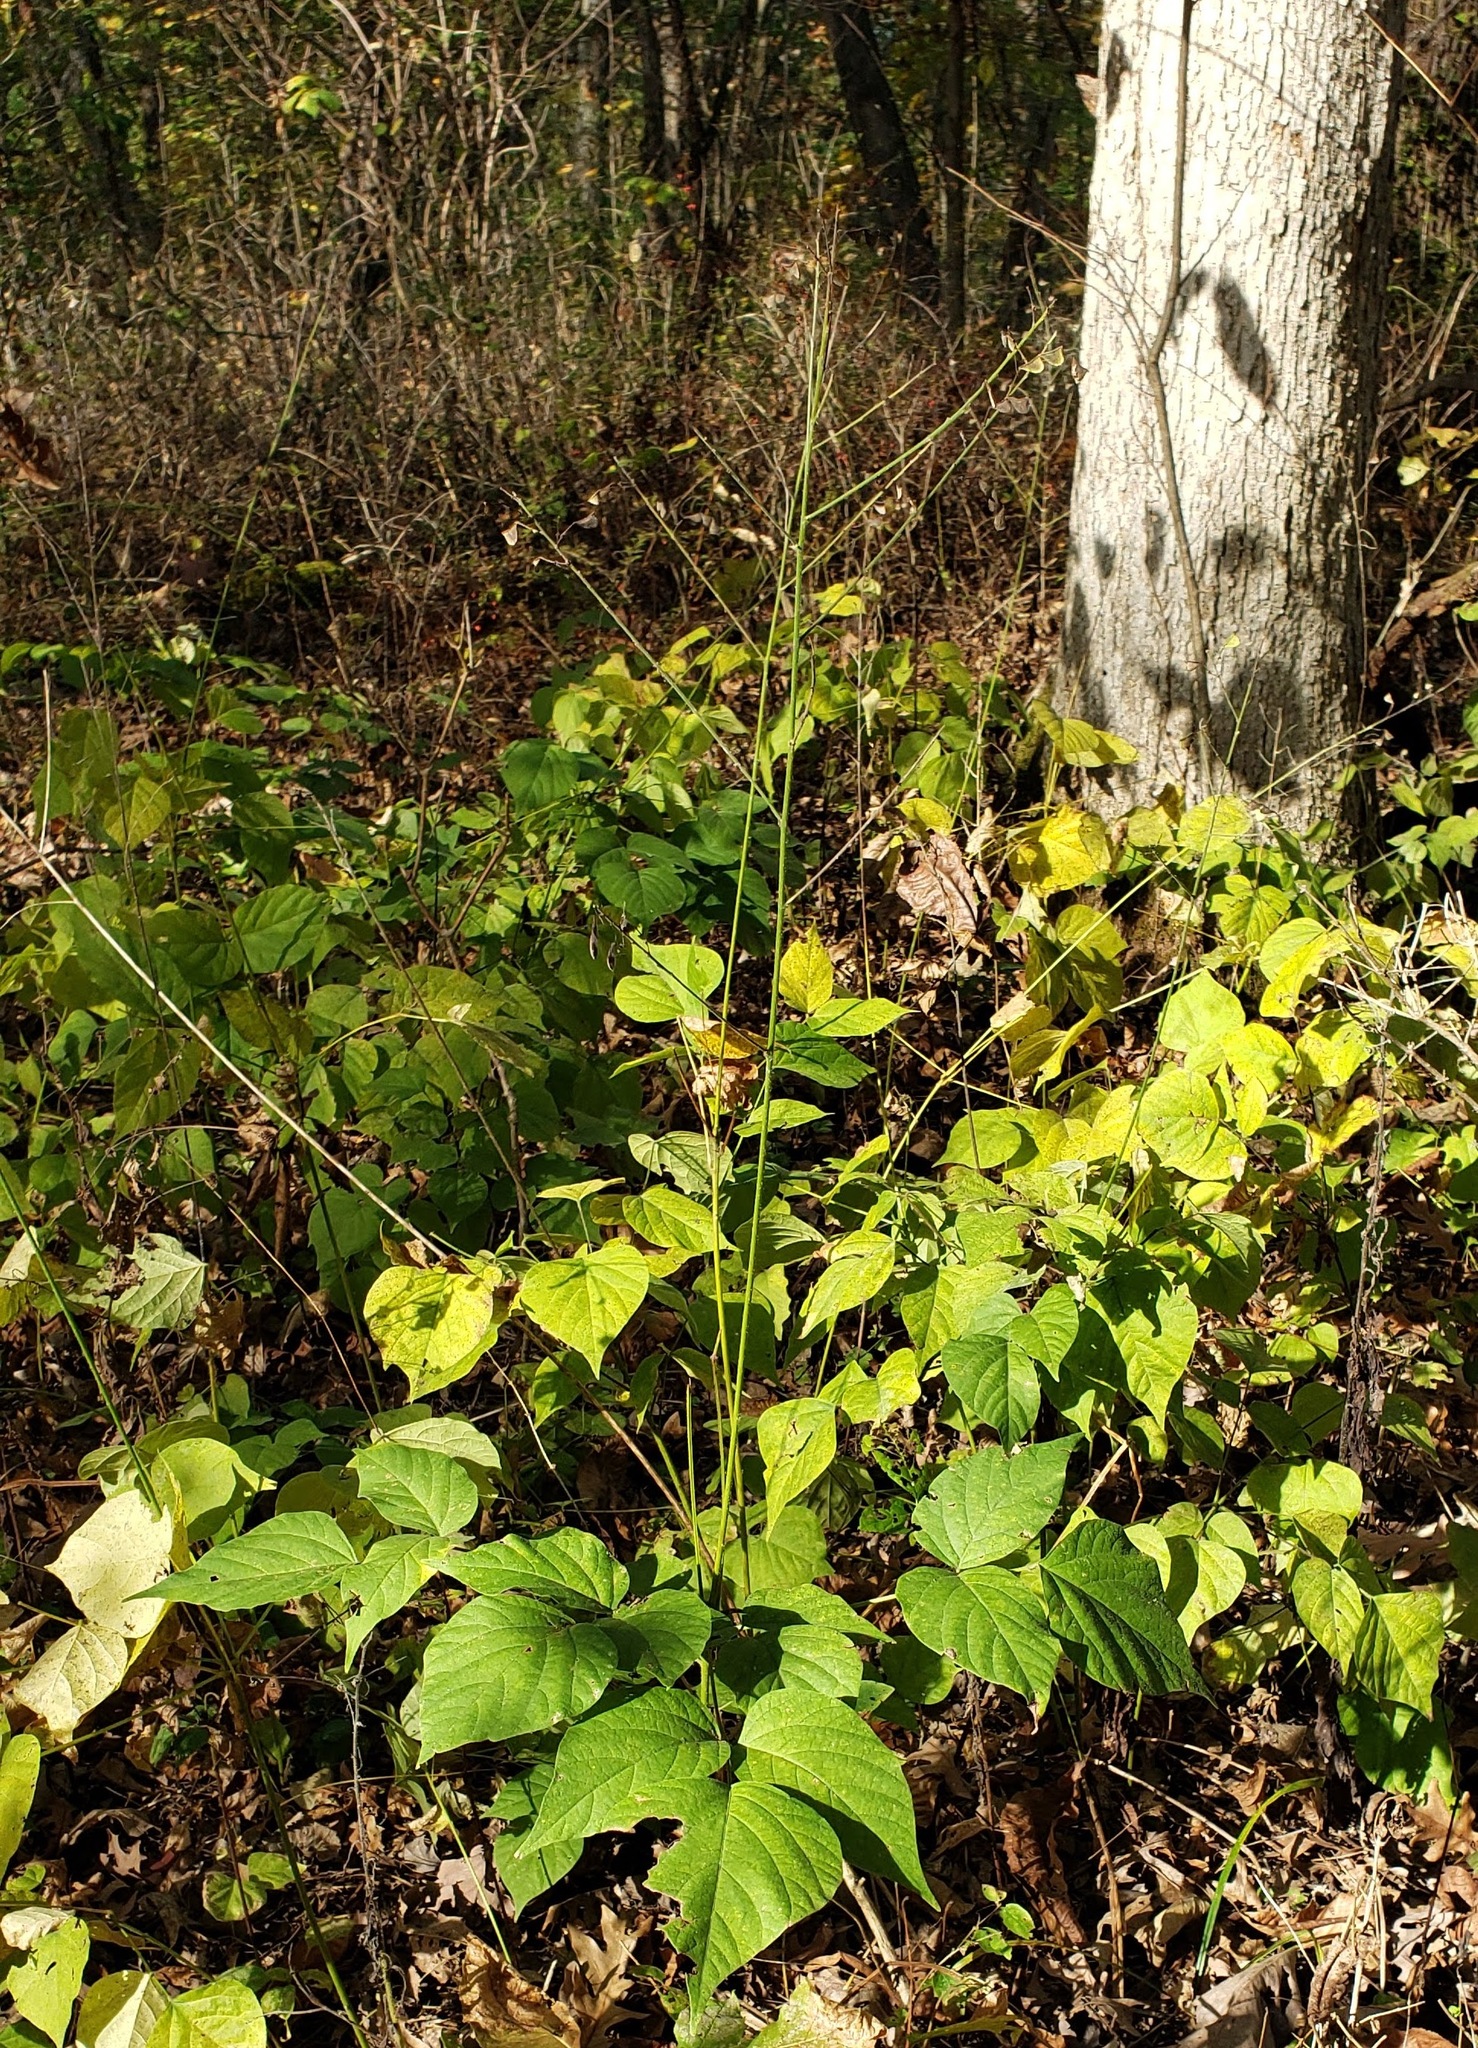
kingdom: Plantae
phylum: Tracheophyta
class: Magnoliopsida
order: Fabales
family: Fabaceae
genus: Hylodesmum
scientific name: Hylodesmum glutinosum
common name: Clustered-leaved tick-trefoil
